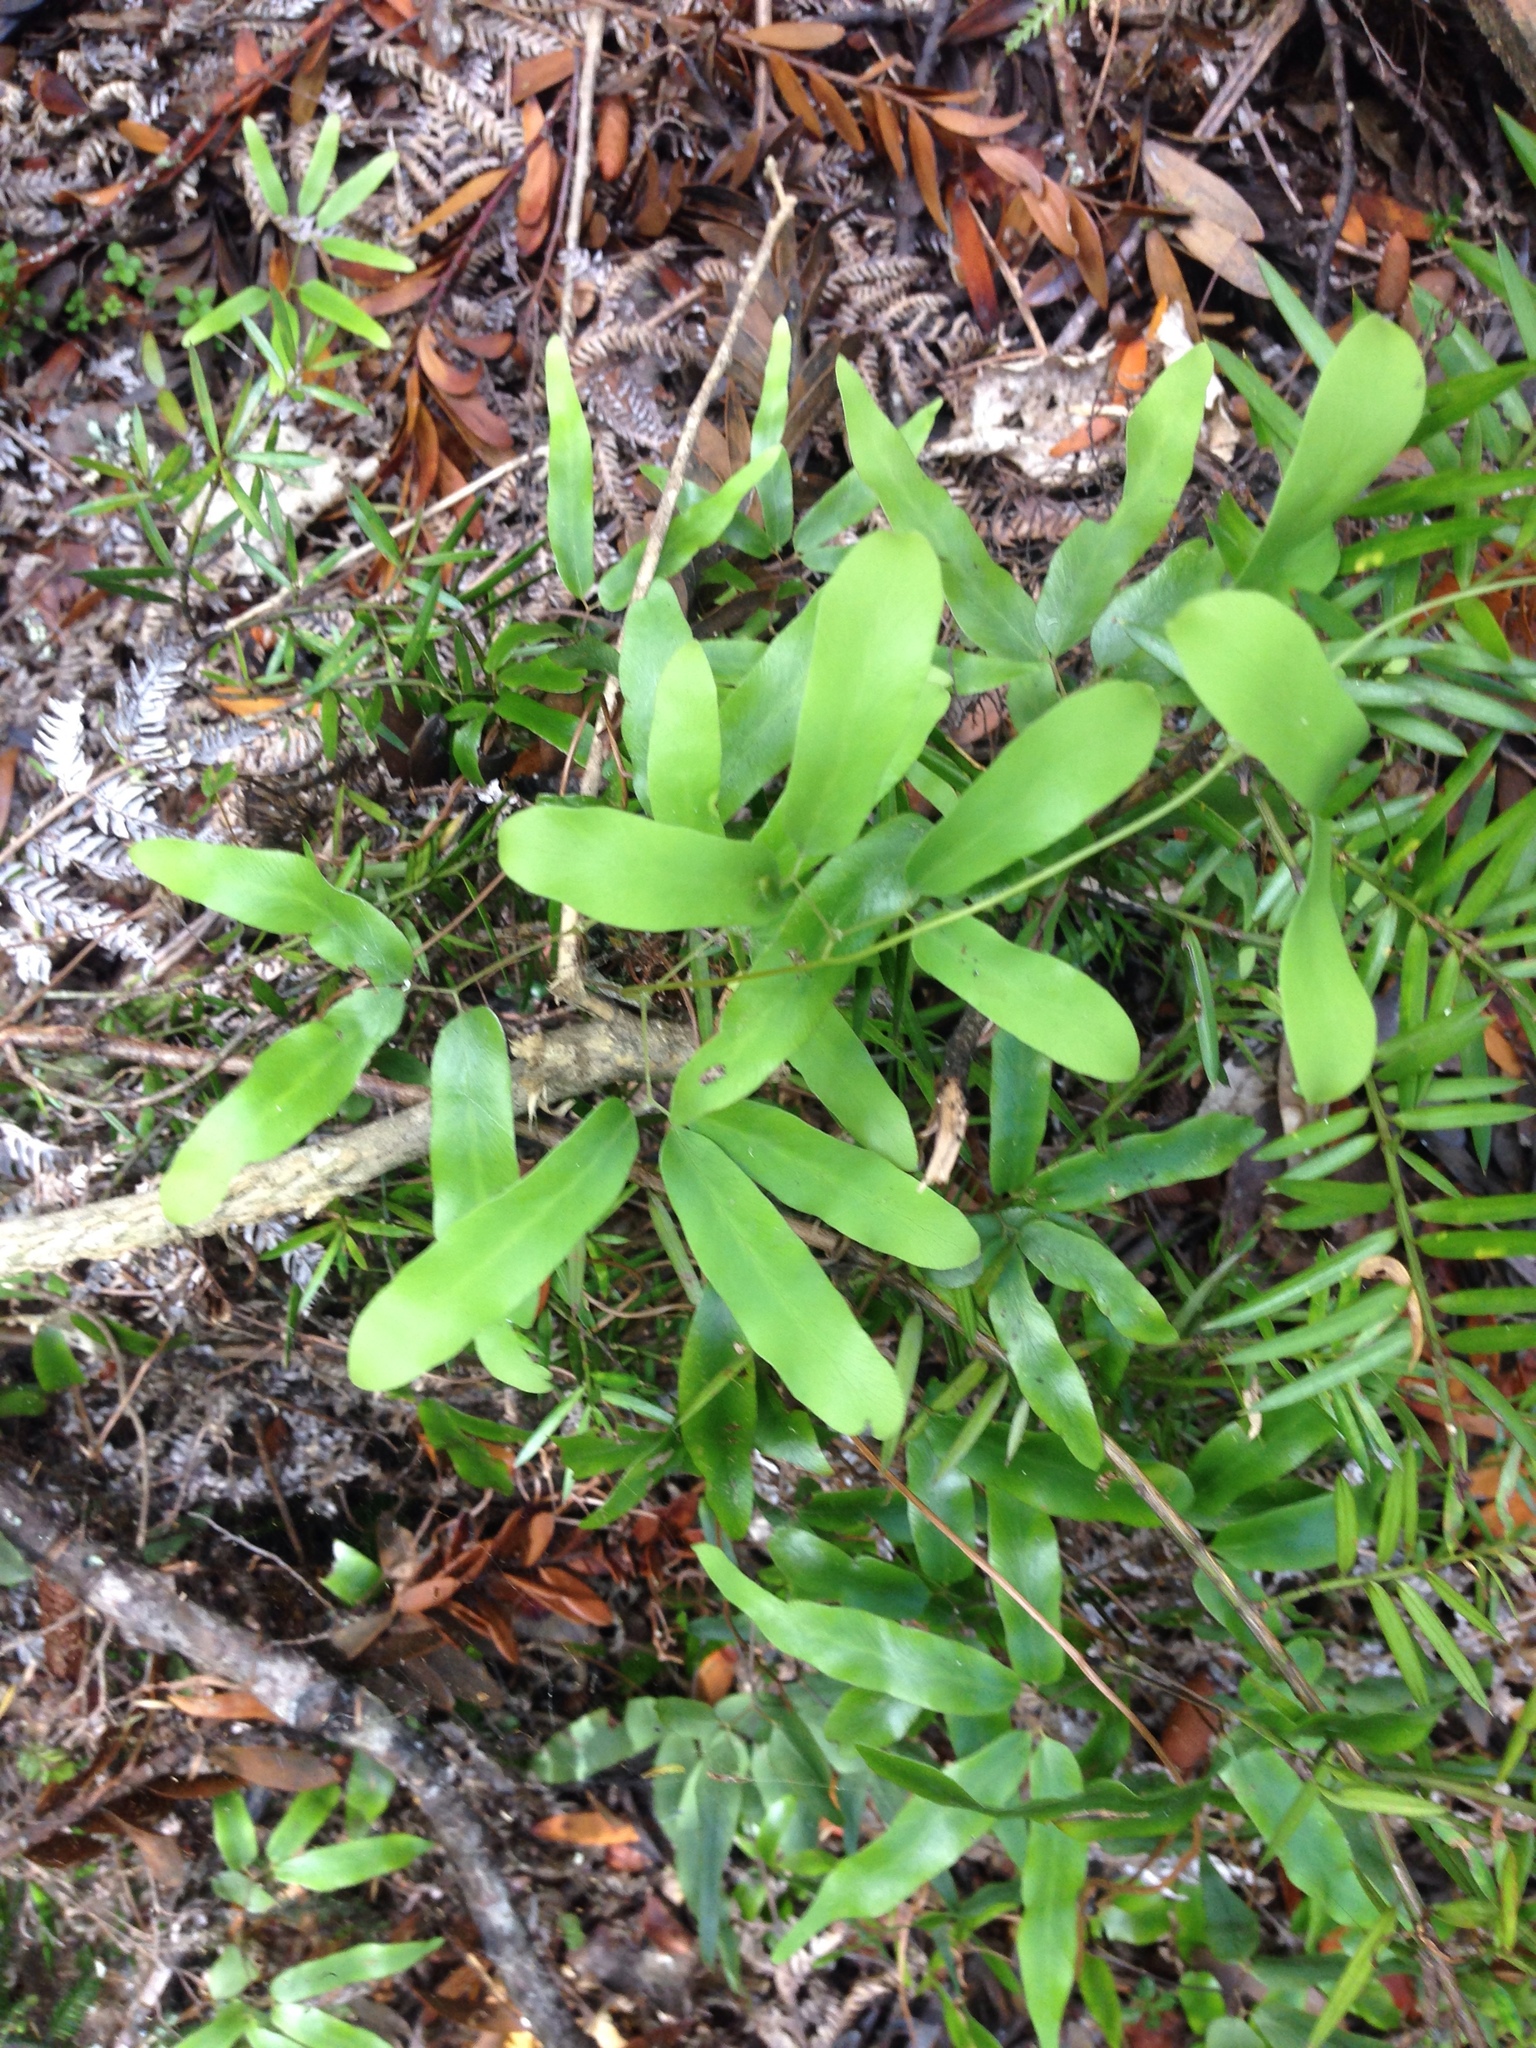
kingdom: Plantae
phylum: Tracheophyta
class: Polypodiopsida
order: Schizaeales
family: Lygodiaceae
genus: Lygodium
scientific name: Lygodium articulatum
